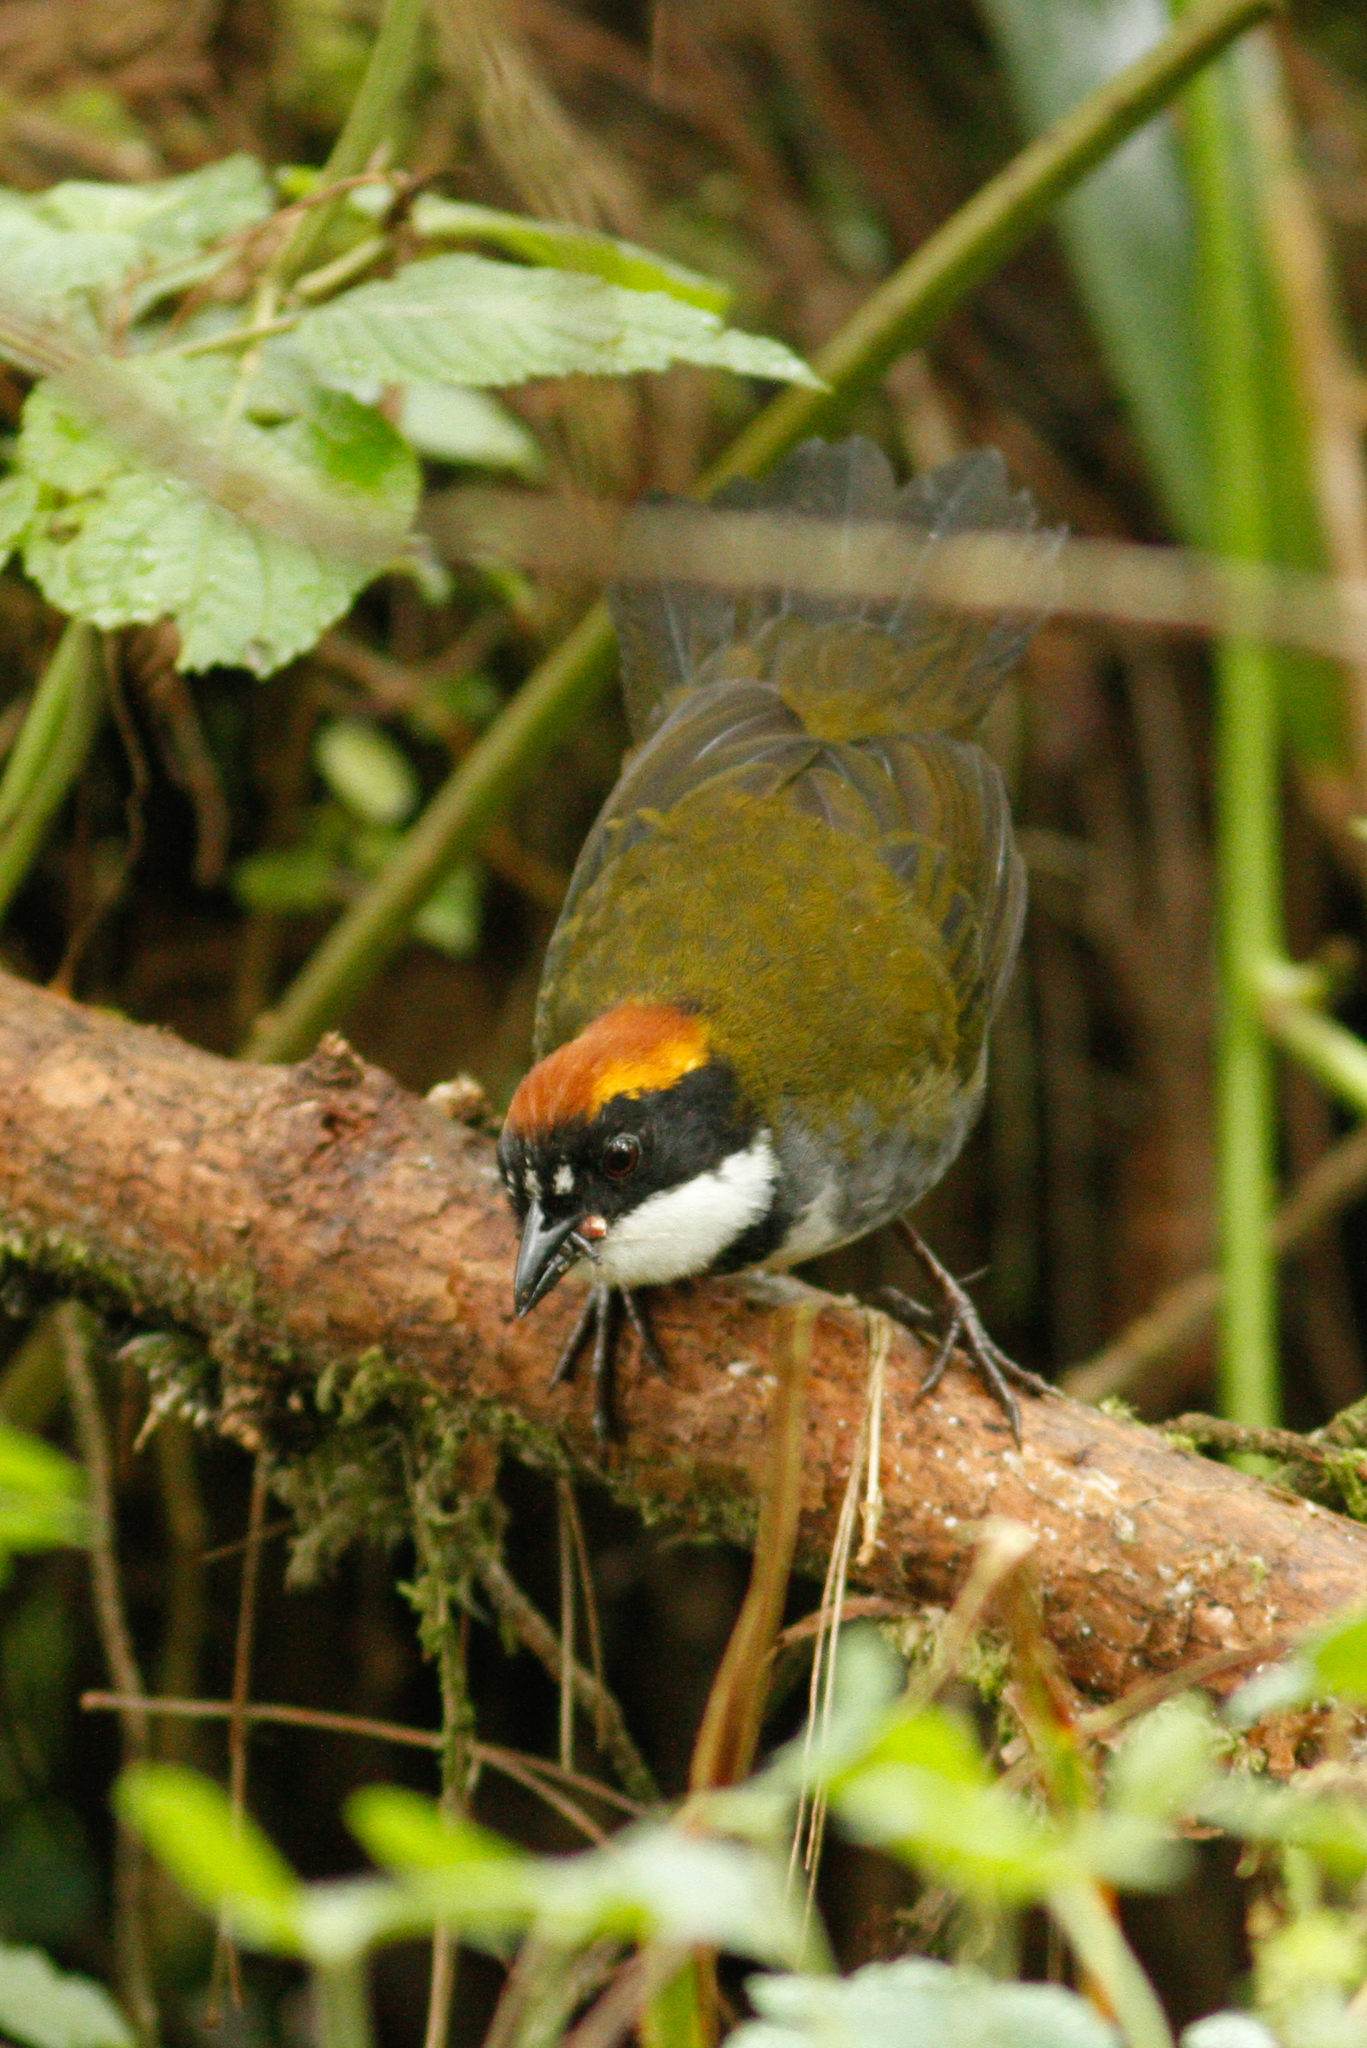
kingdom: Animalia
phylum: Chordata
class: Aves
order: Passeriformes
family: Passerellidae
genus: Arremon
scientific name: Arremon brunneinucha
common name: Chestnut-capped brushfinch
